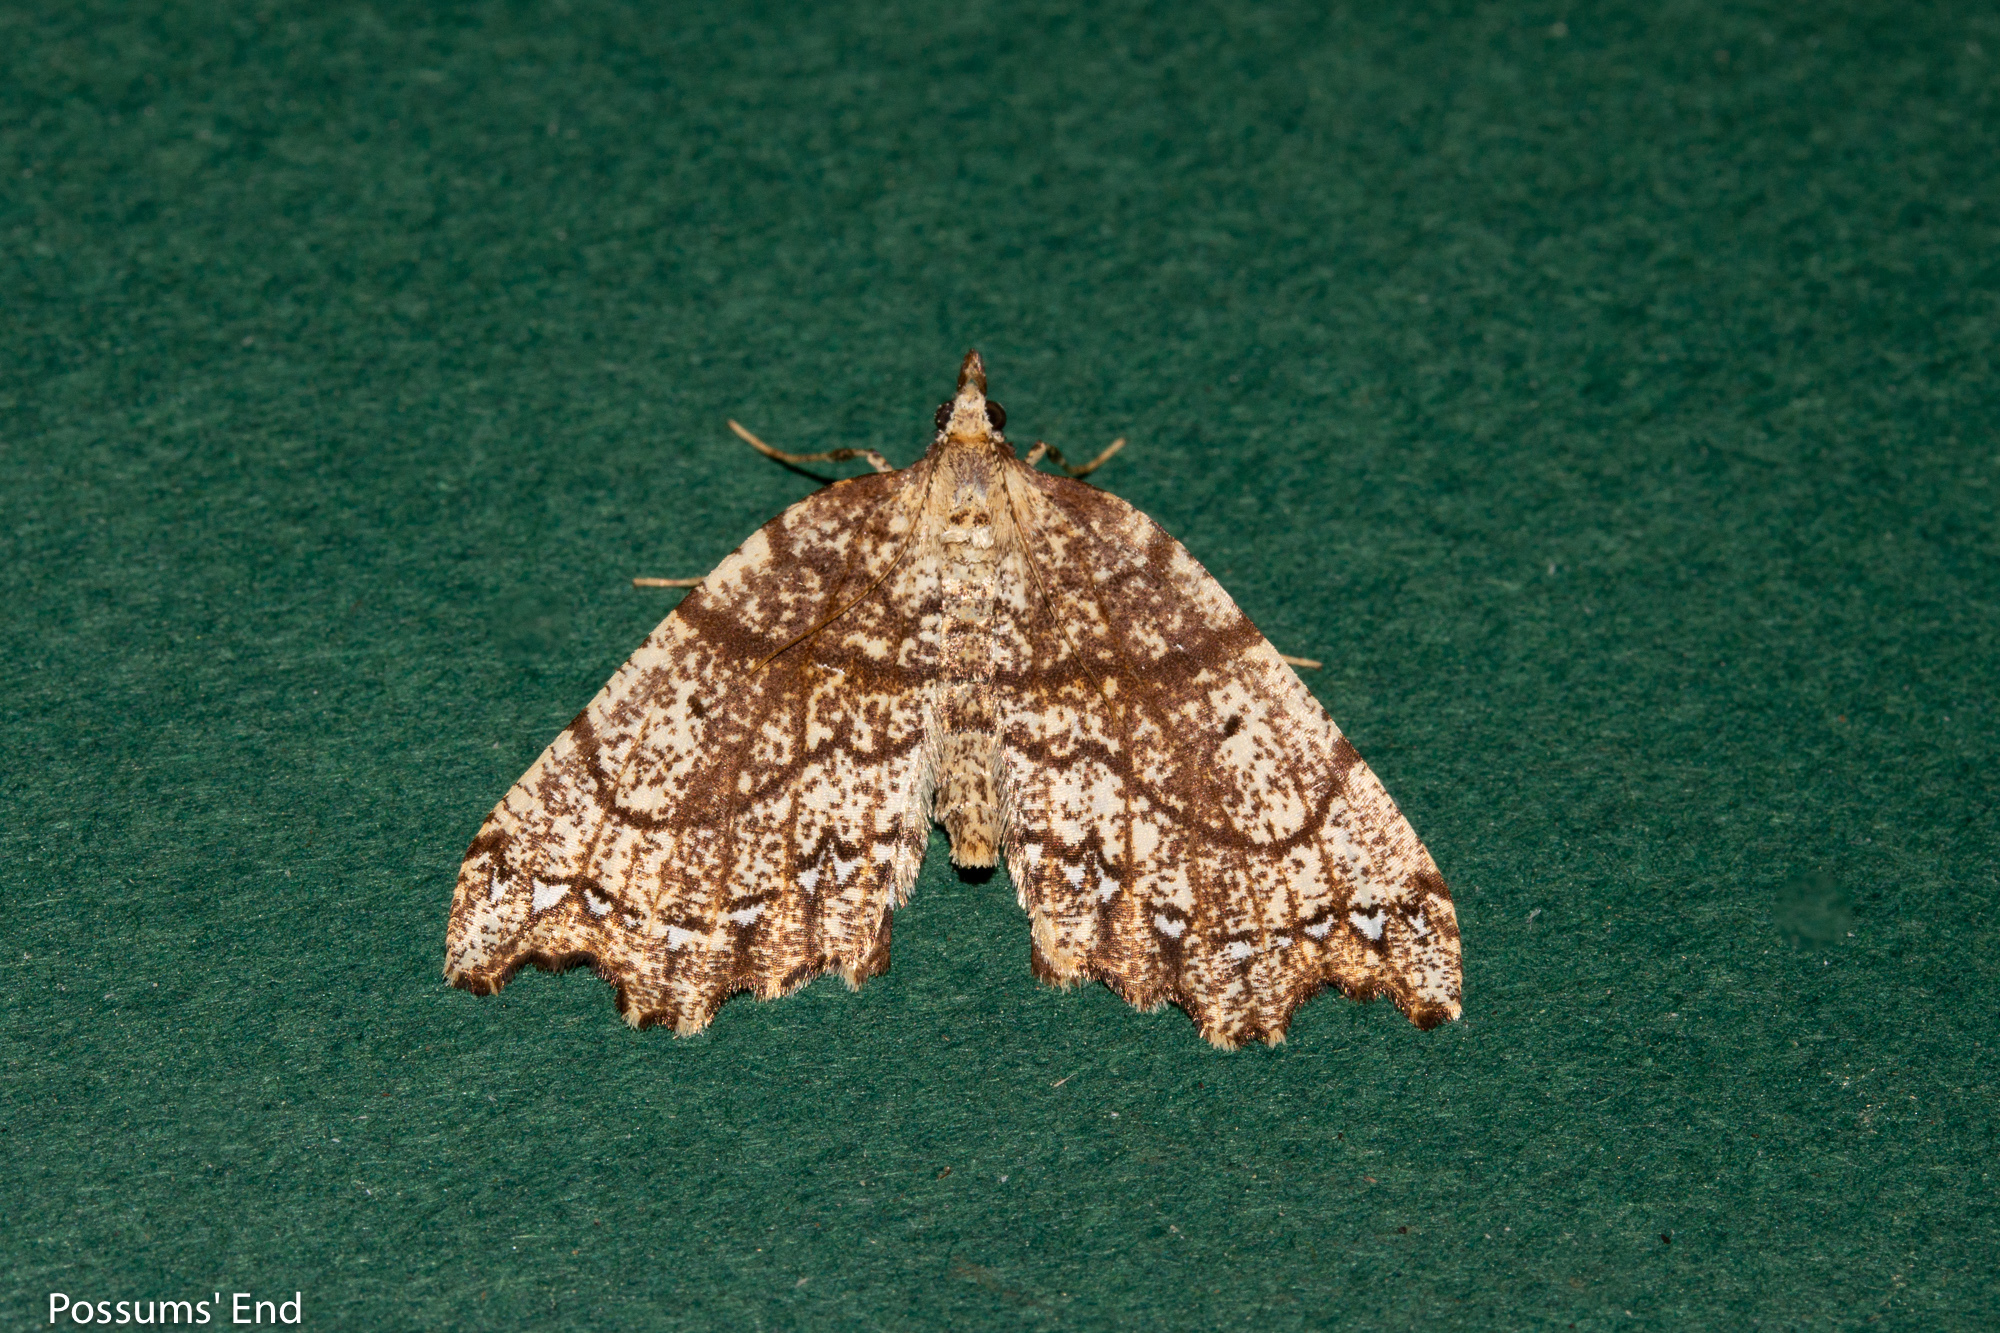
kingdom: Animalia
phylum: Arthropoda
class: Insecta
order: Lepidoptera
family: Geometridae
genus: Chalastra
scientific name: Chalastra pellurgata
